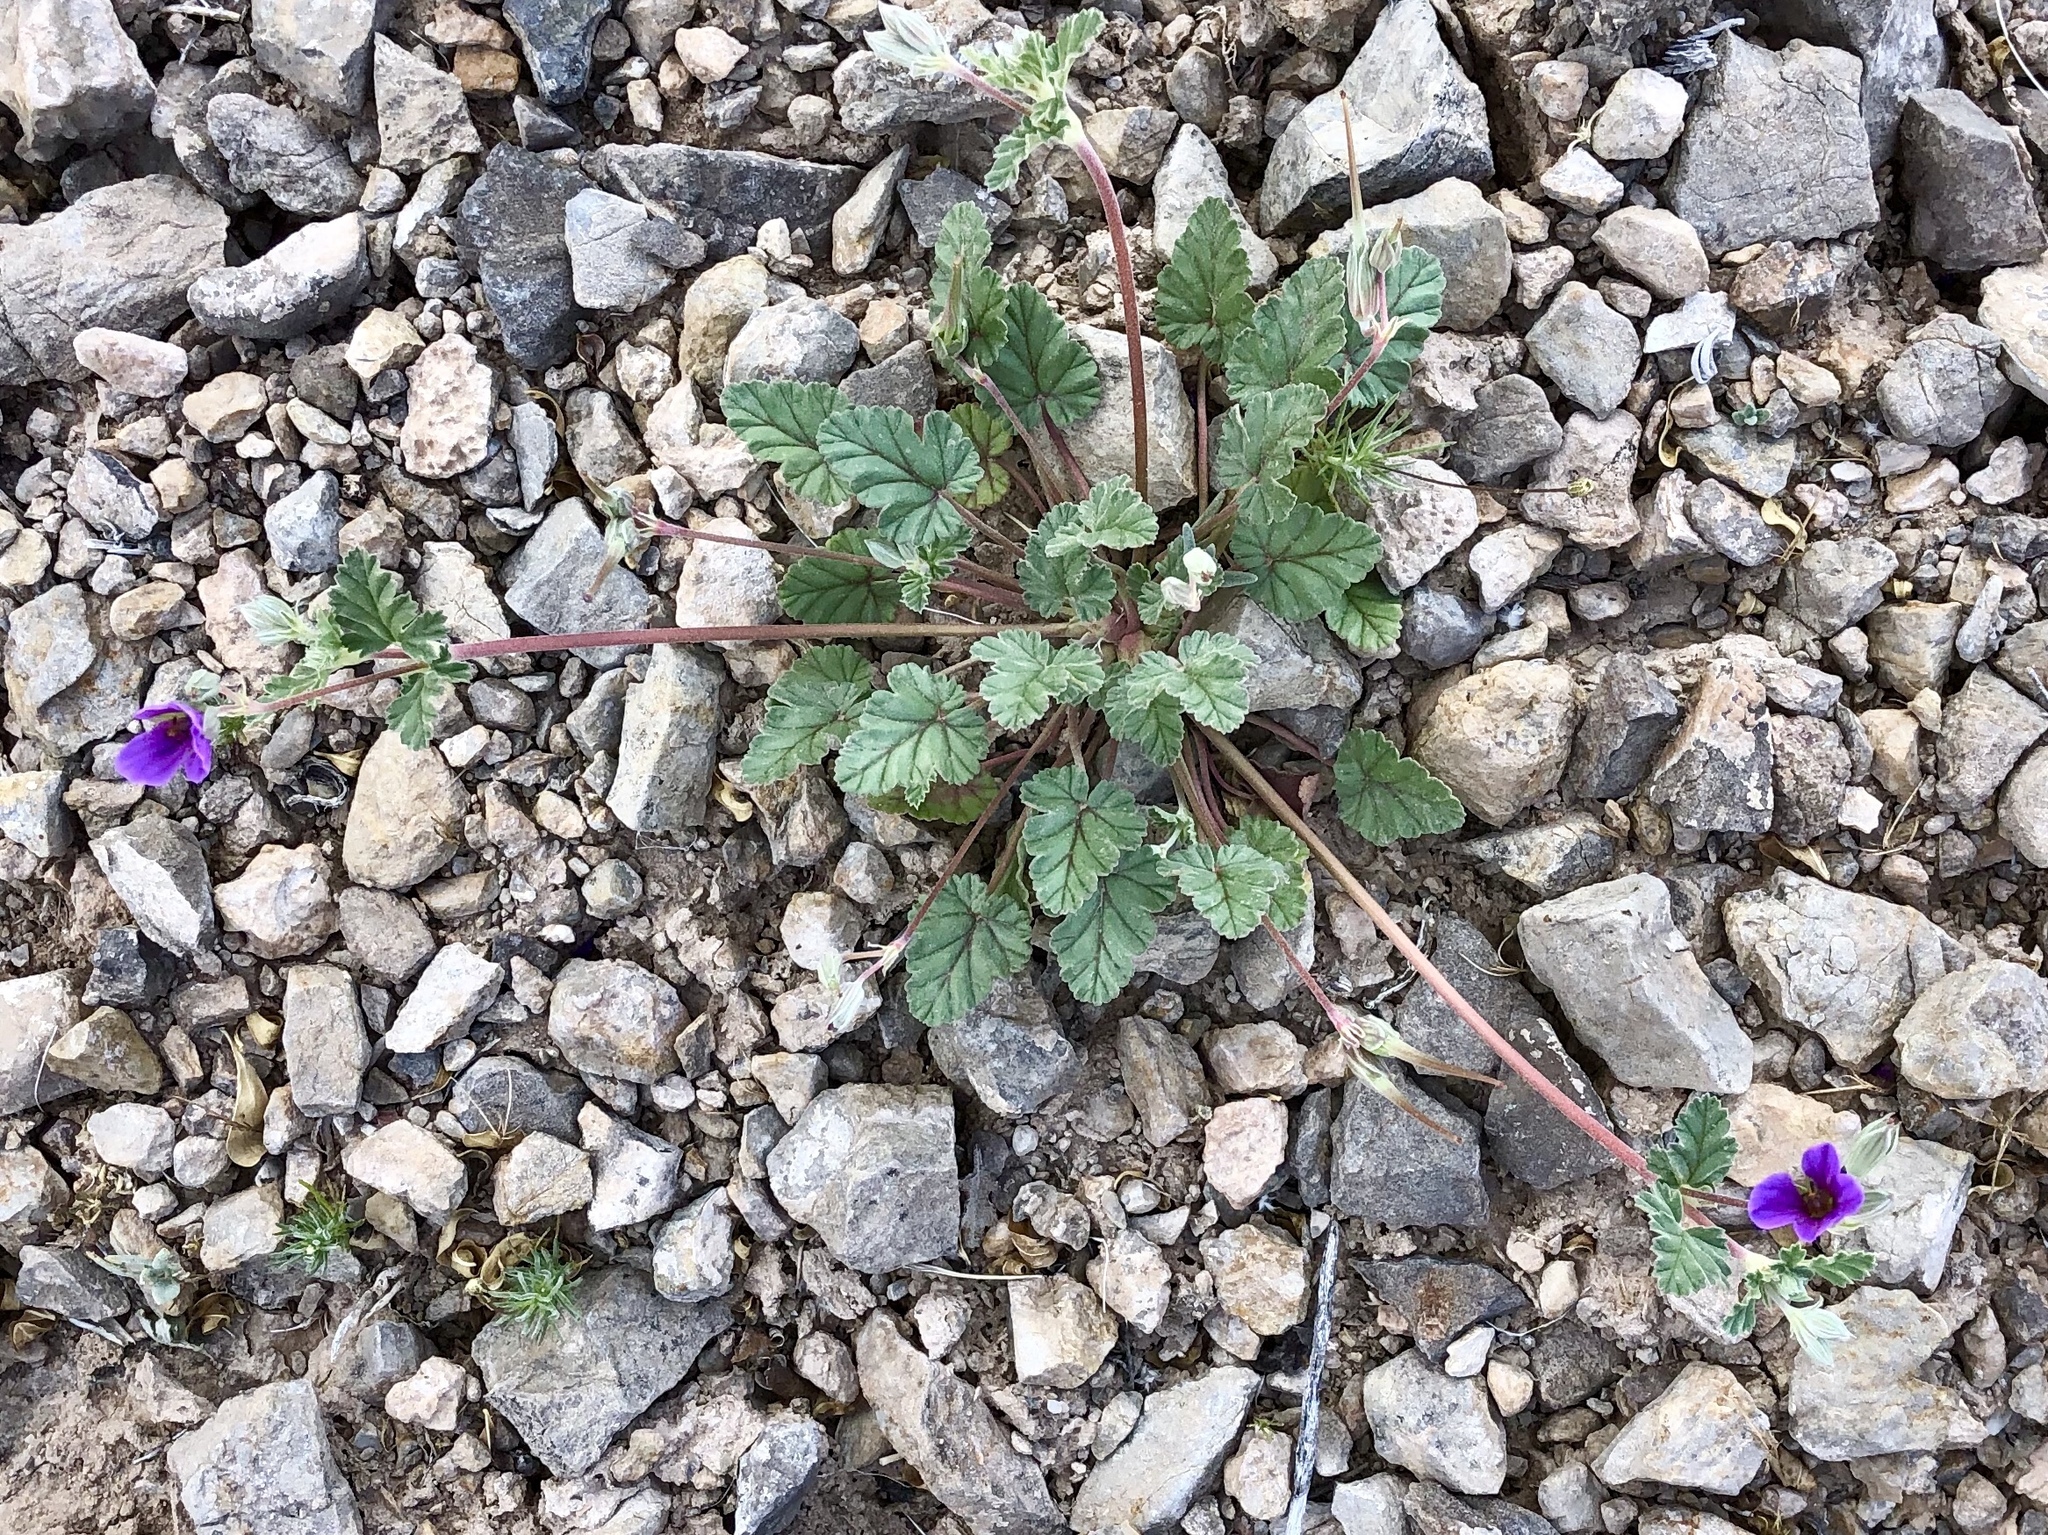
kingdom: Plantae
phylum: Tracheophyta
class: Magnoliopsida
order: Geraniales
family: Geraniaceae
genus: Erodium
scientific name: Erodium texanum
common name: Texas stork's-bill
